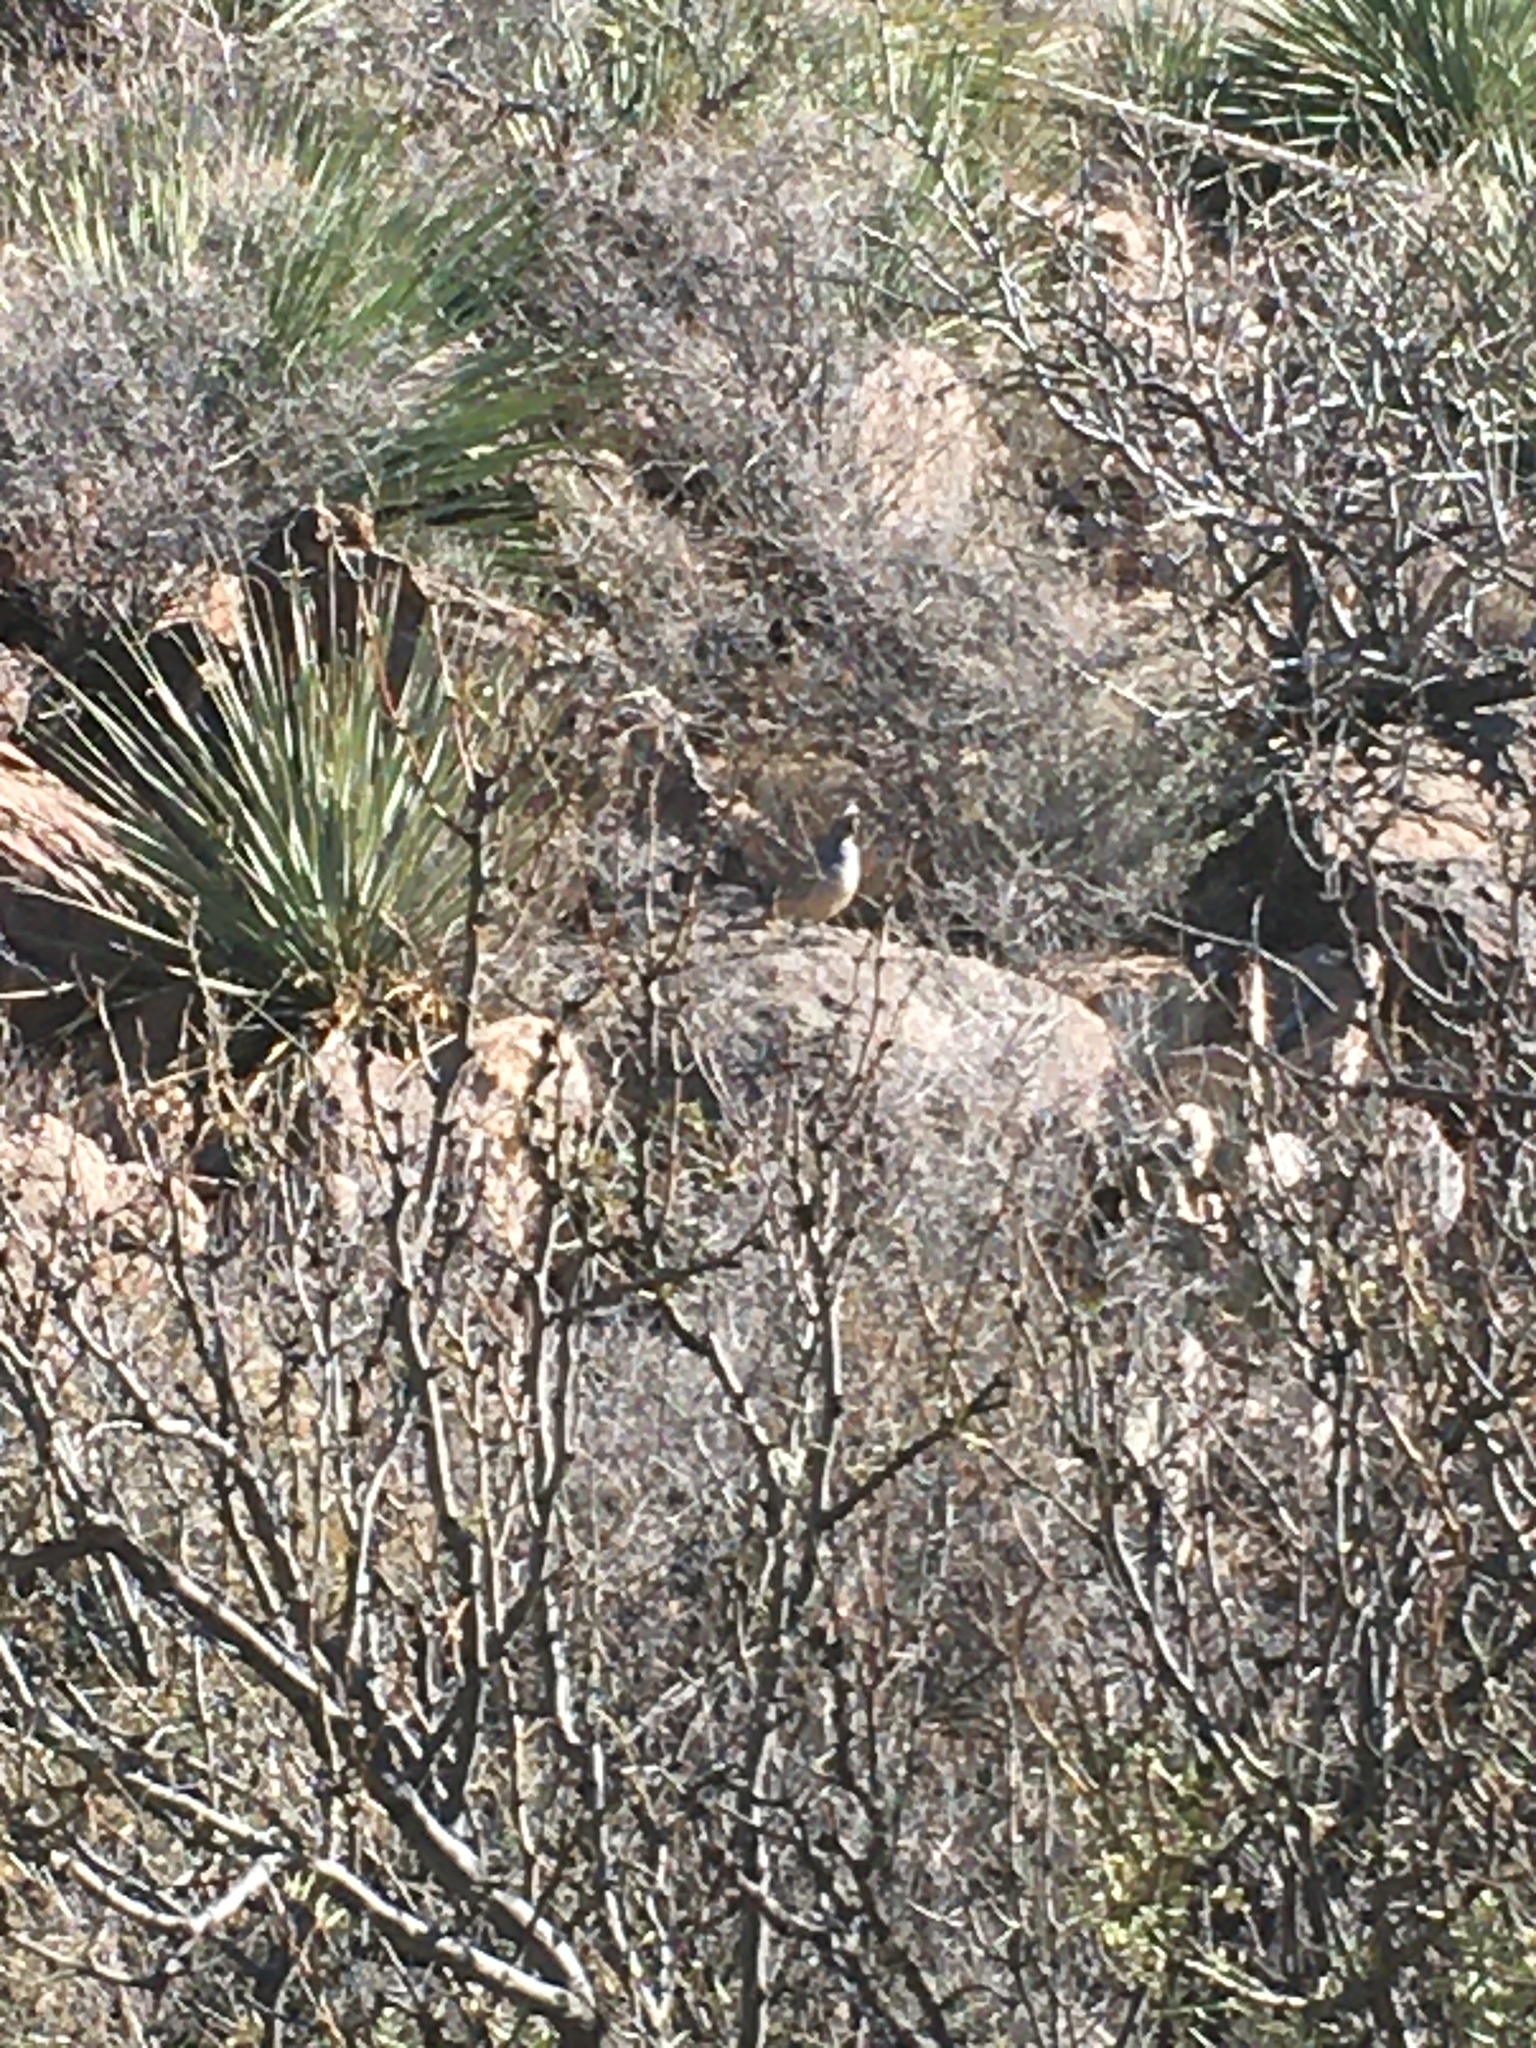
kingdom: Animalia
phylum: Chordata
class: Aves
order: Galliformes
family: Odontophoridae
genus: Callipepla
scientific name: Callipepla squamata
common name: Scaled quail
